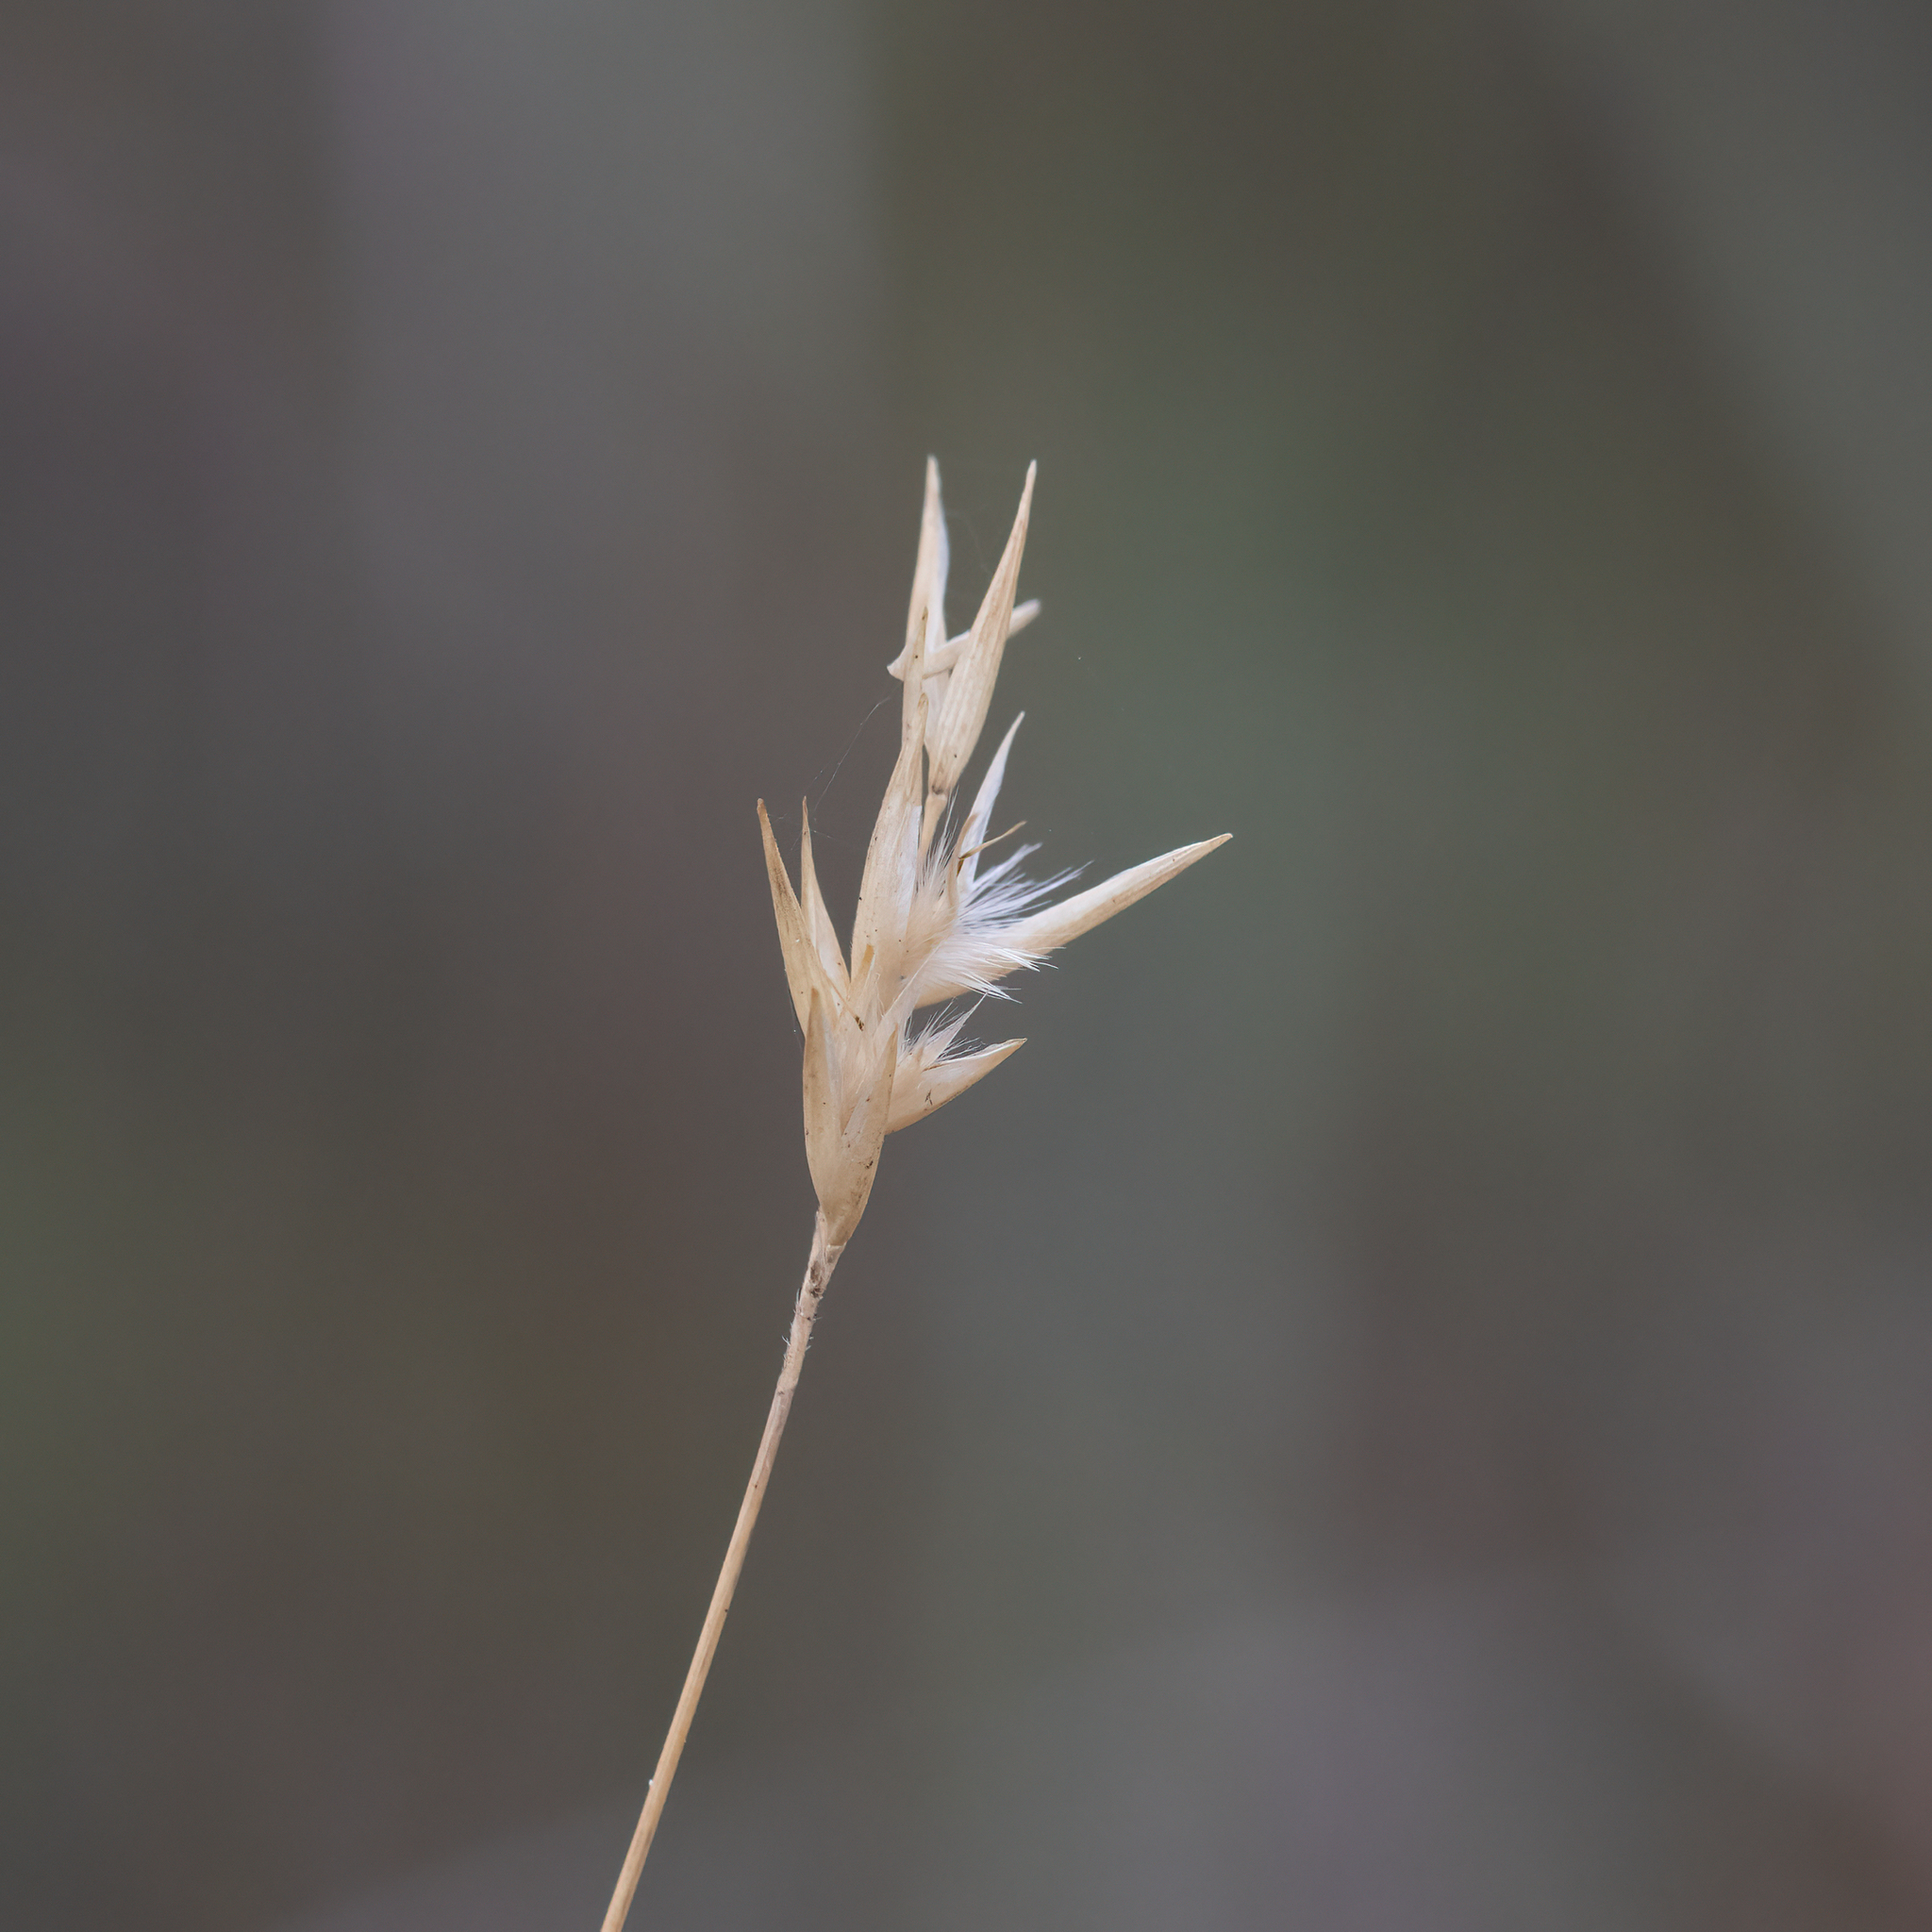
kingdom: Plantae
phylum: Tracheophyta
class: Liliopsida
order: Poales
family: Poaceae
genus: Rytidosperma
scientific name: Rytidosperma geniculatum
